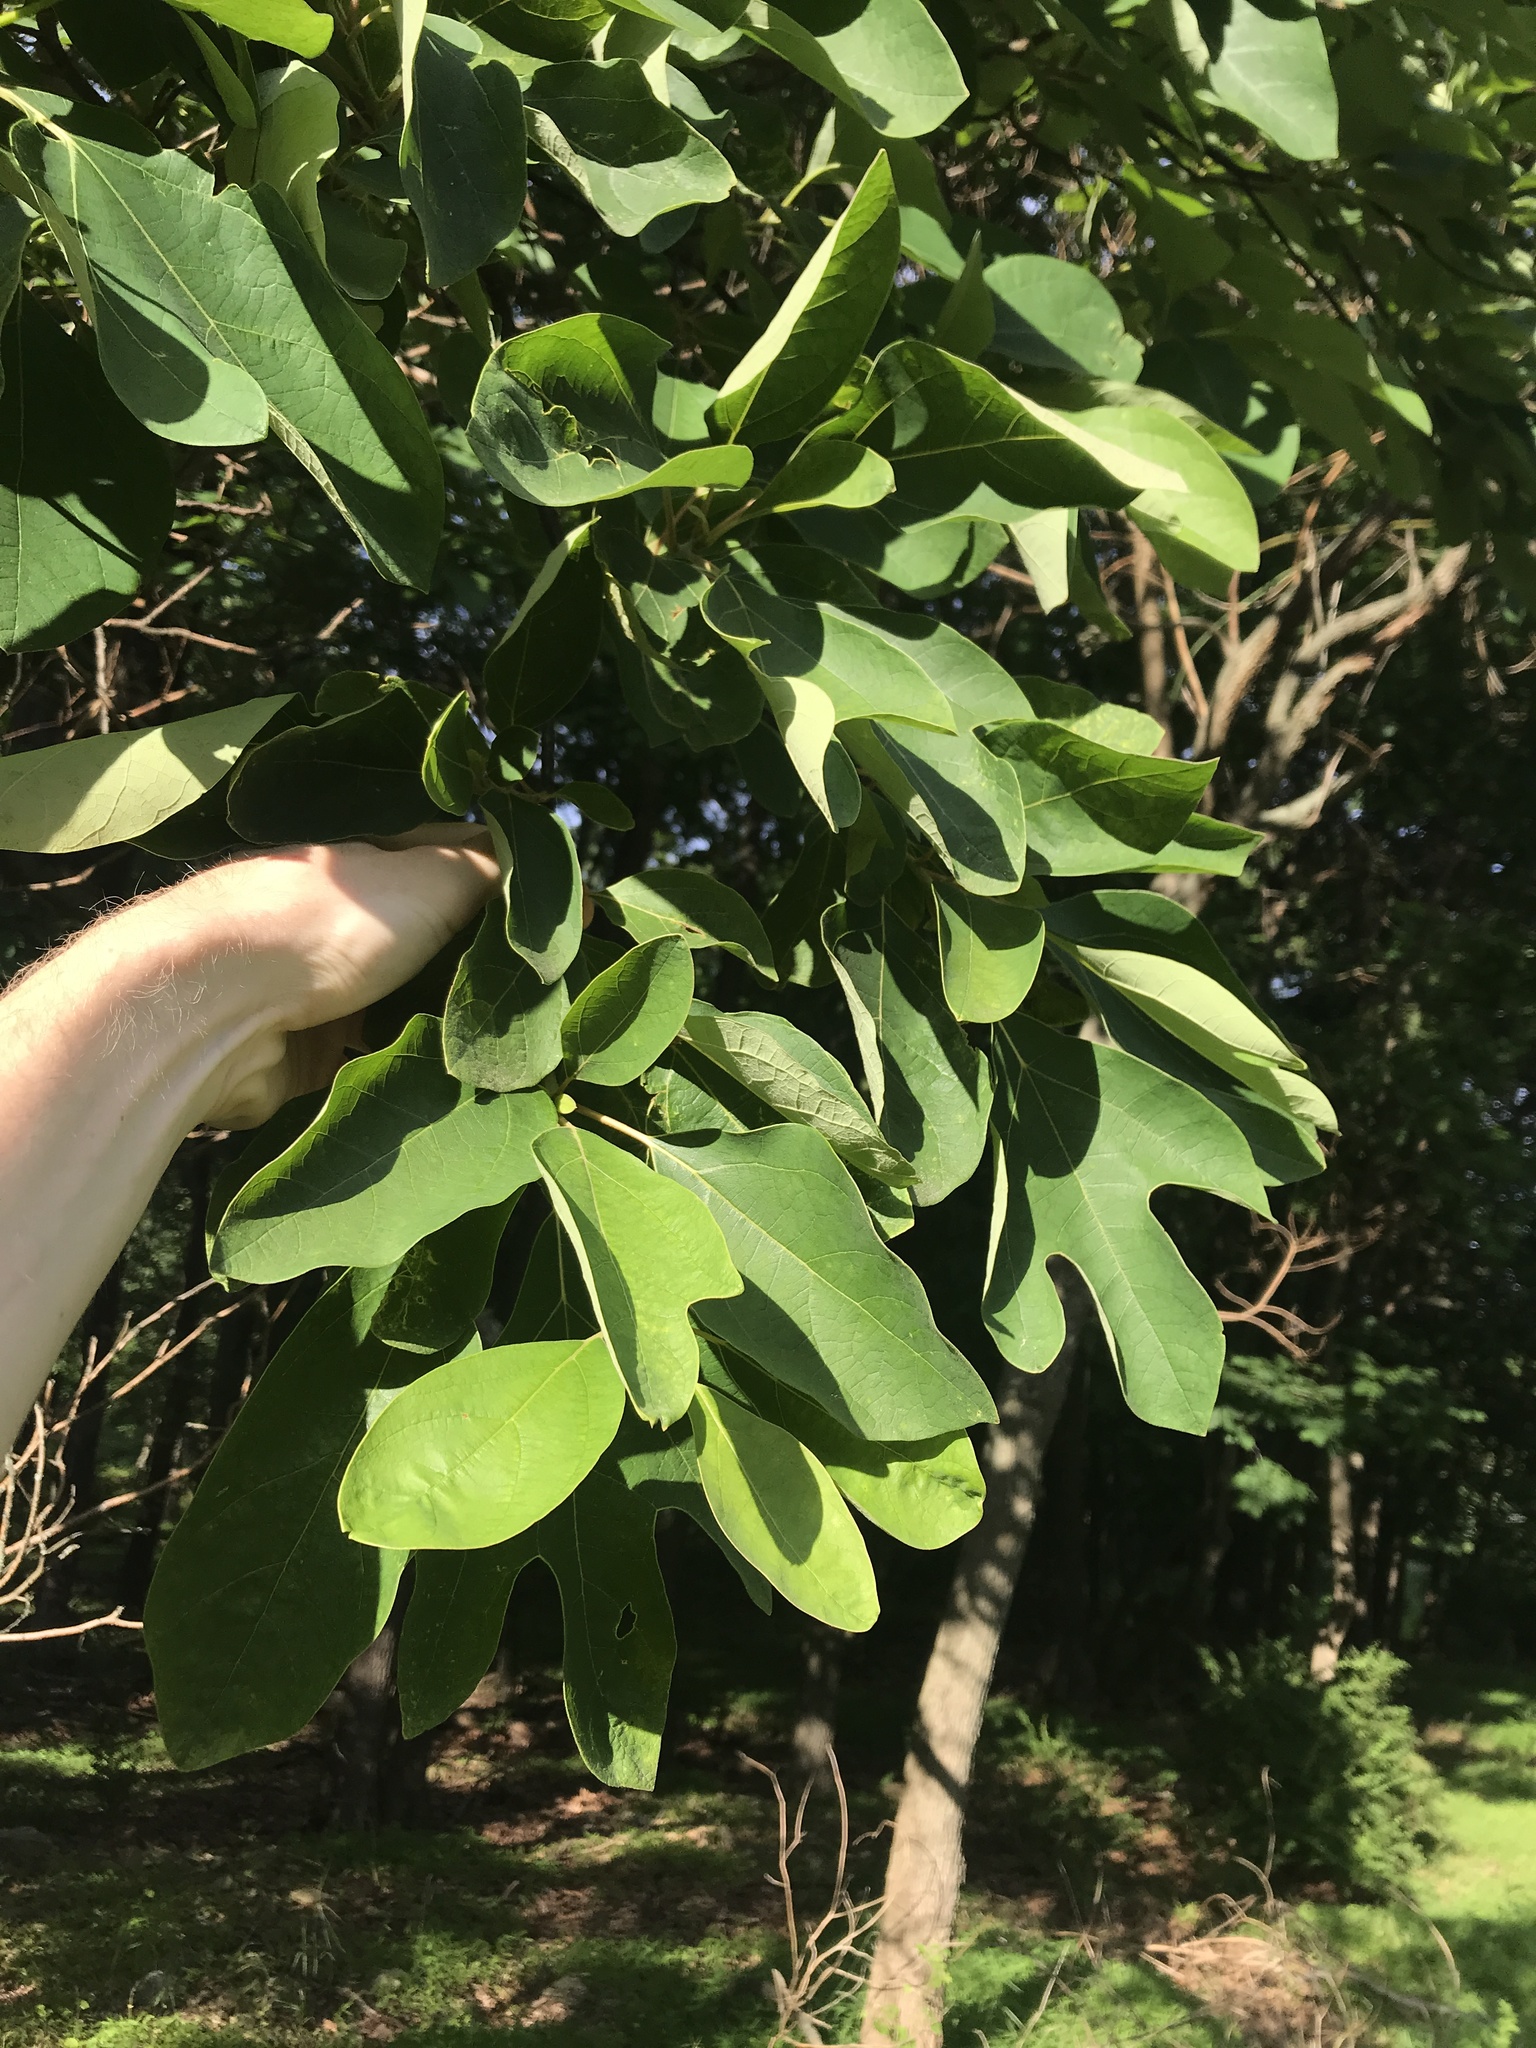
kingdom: Plantae
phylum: Tracheophyta
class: Magnoliopsida
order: Laurales
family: Lauraceae
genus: Sassafras
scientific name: Sassafras albidum
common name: Sassafras
